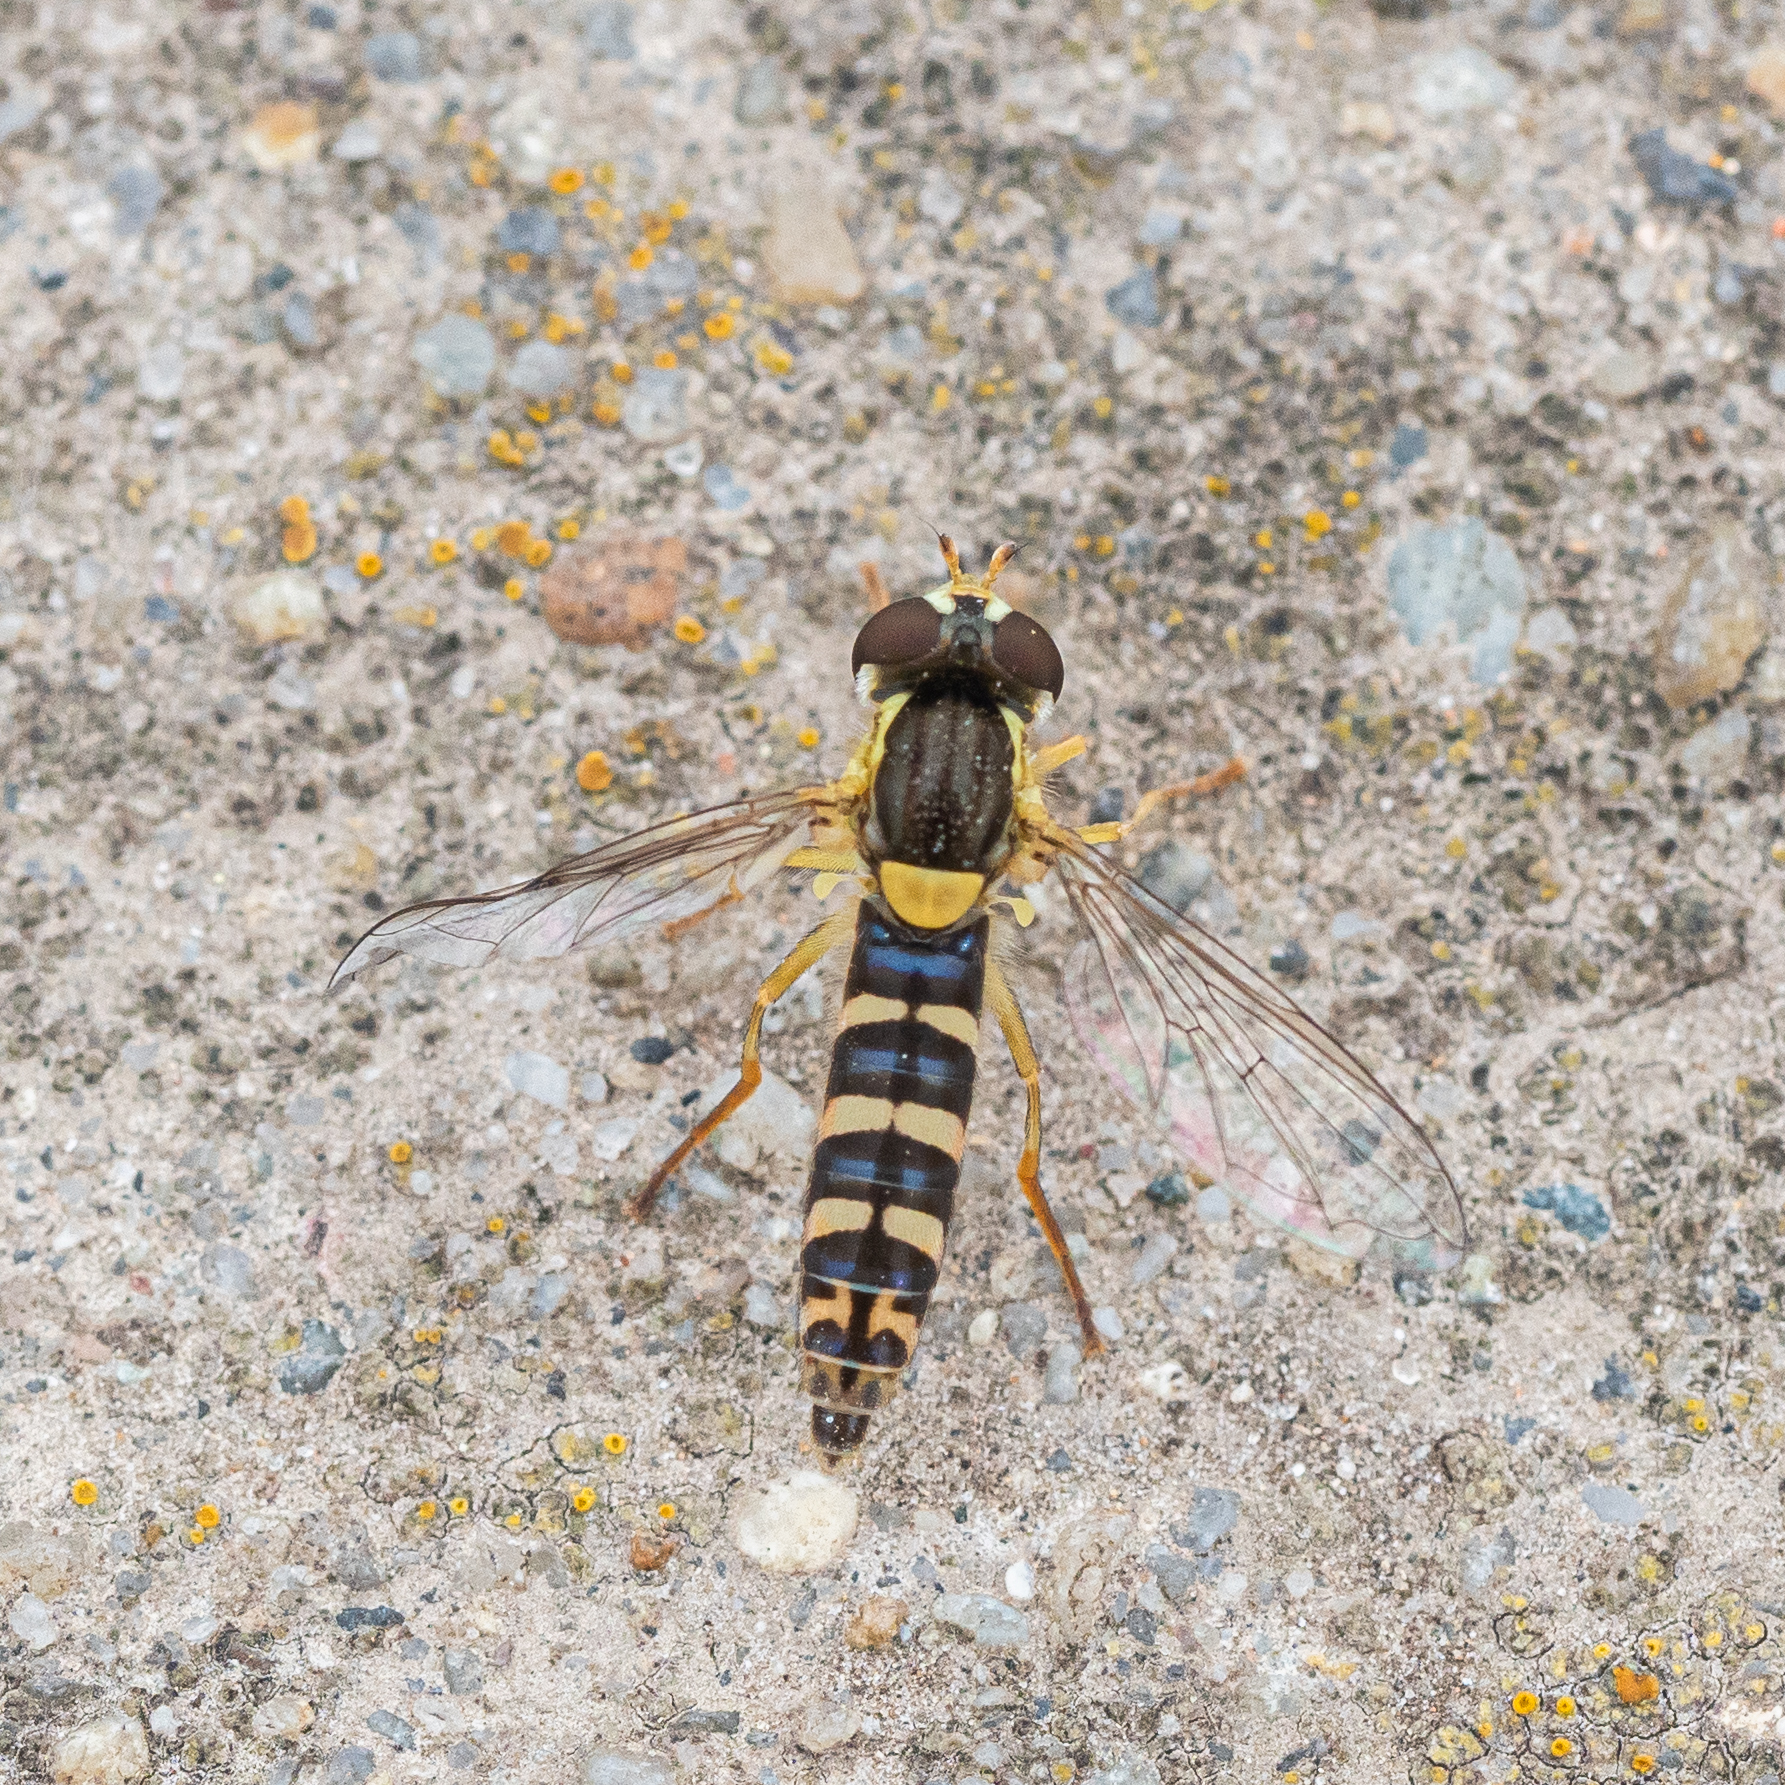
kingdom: Animalia
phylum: Arthropoda
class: Insecta
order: Diptera
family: Syrphidae
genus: Sphaerophoria
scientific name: Sphaerophoria
